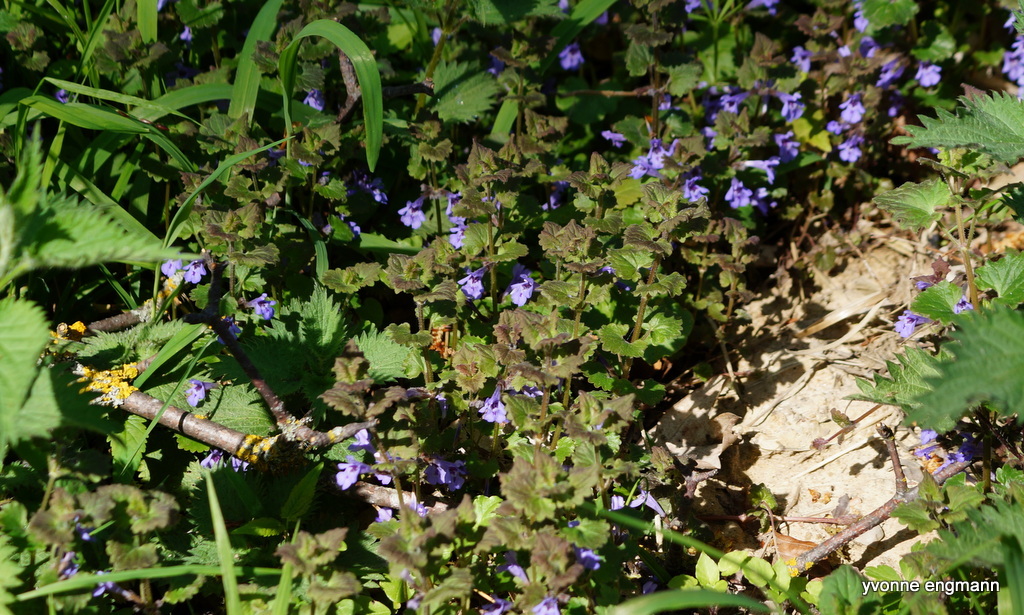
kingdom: Plantae
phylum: Tracheophyta
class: Magnoliopsida
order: Lamiales
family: Lamiaceae
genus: Glechoma
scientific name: Glechoma hederacea
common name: Ground ivy
